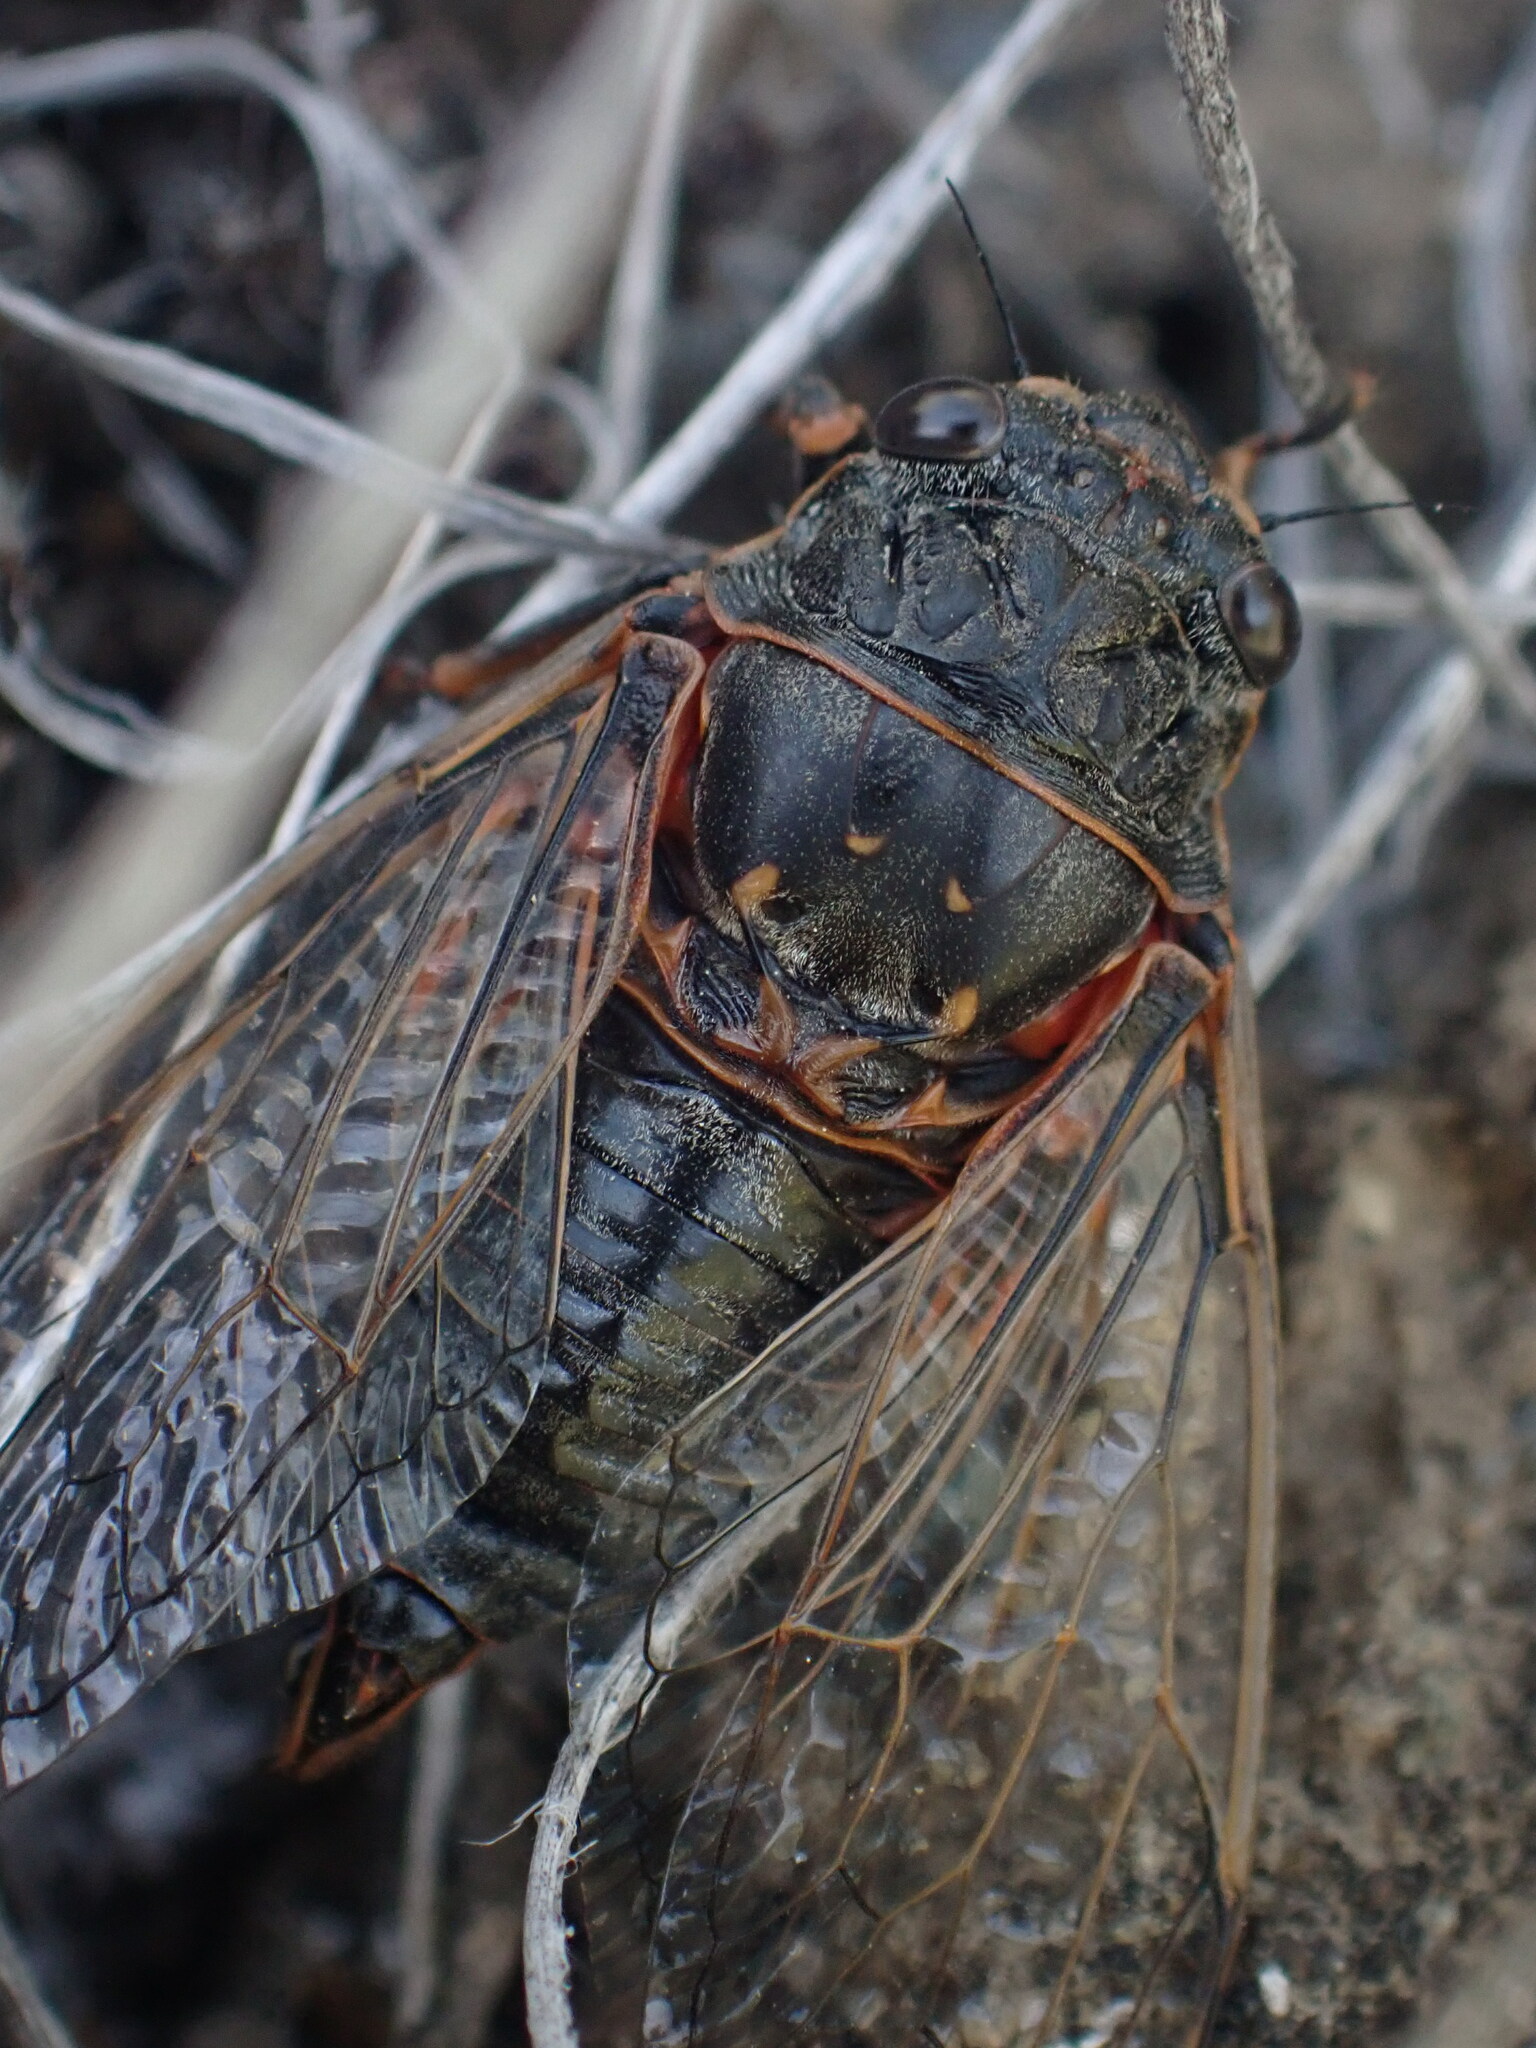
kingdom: Animalia
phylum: Arthropoda
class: Insecta
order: Hemiptera
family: Cicadidae
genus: Okanagana
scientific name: Okanagana occidentalis
